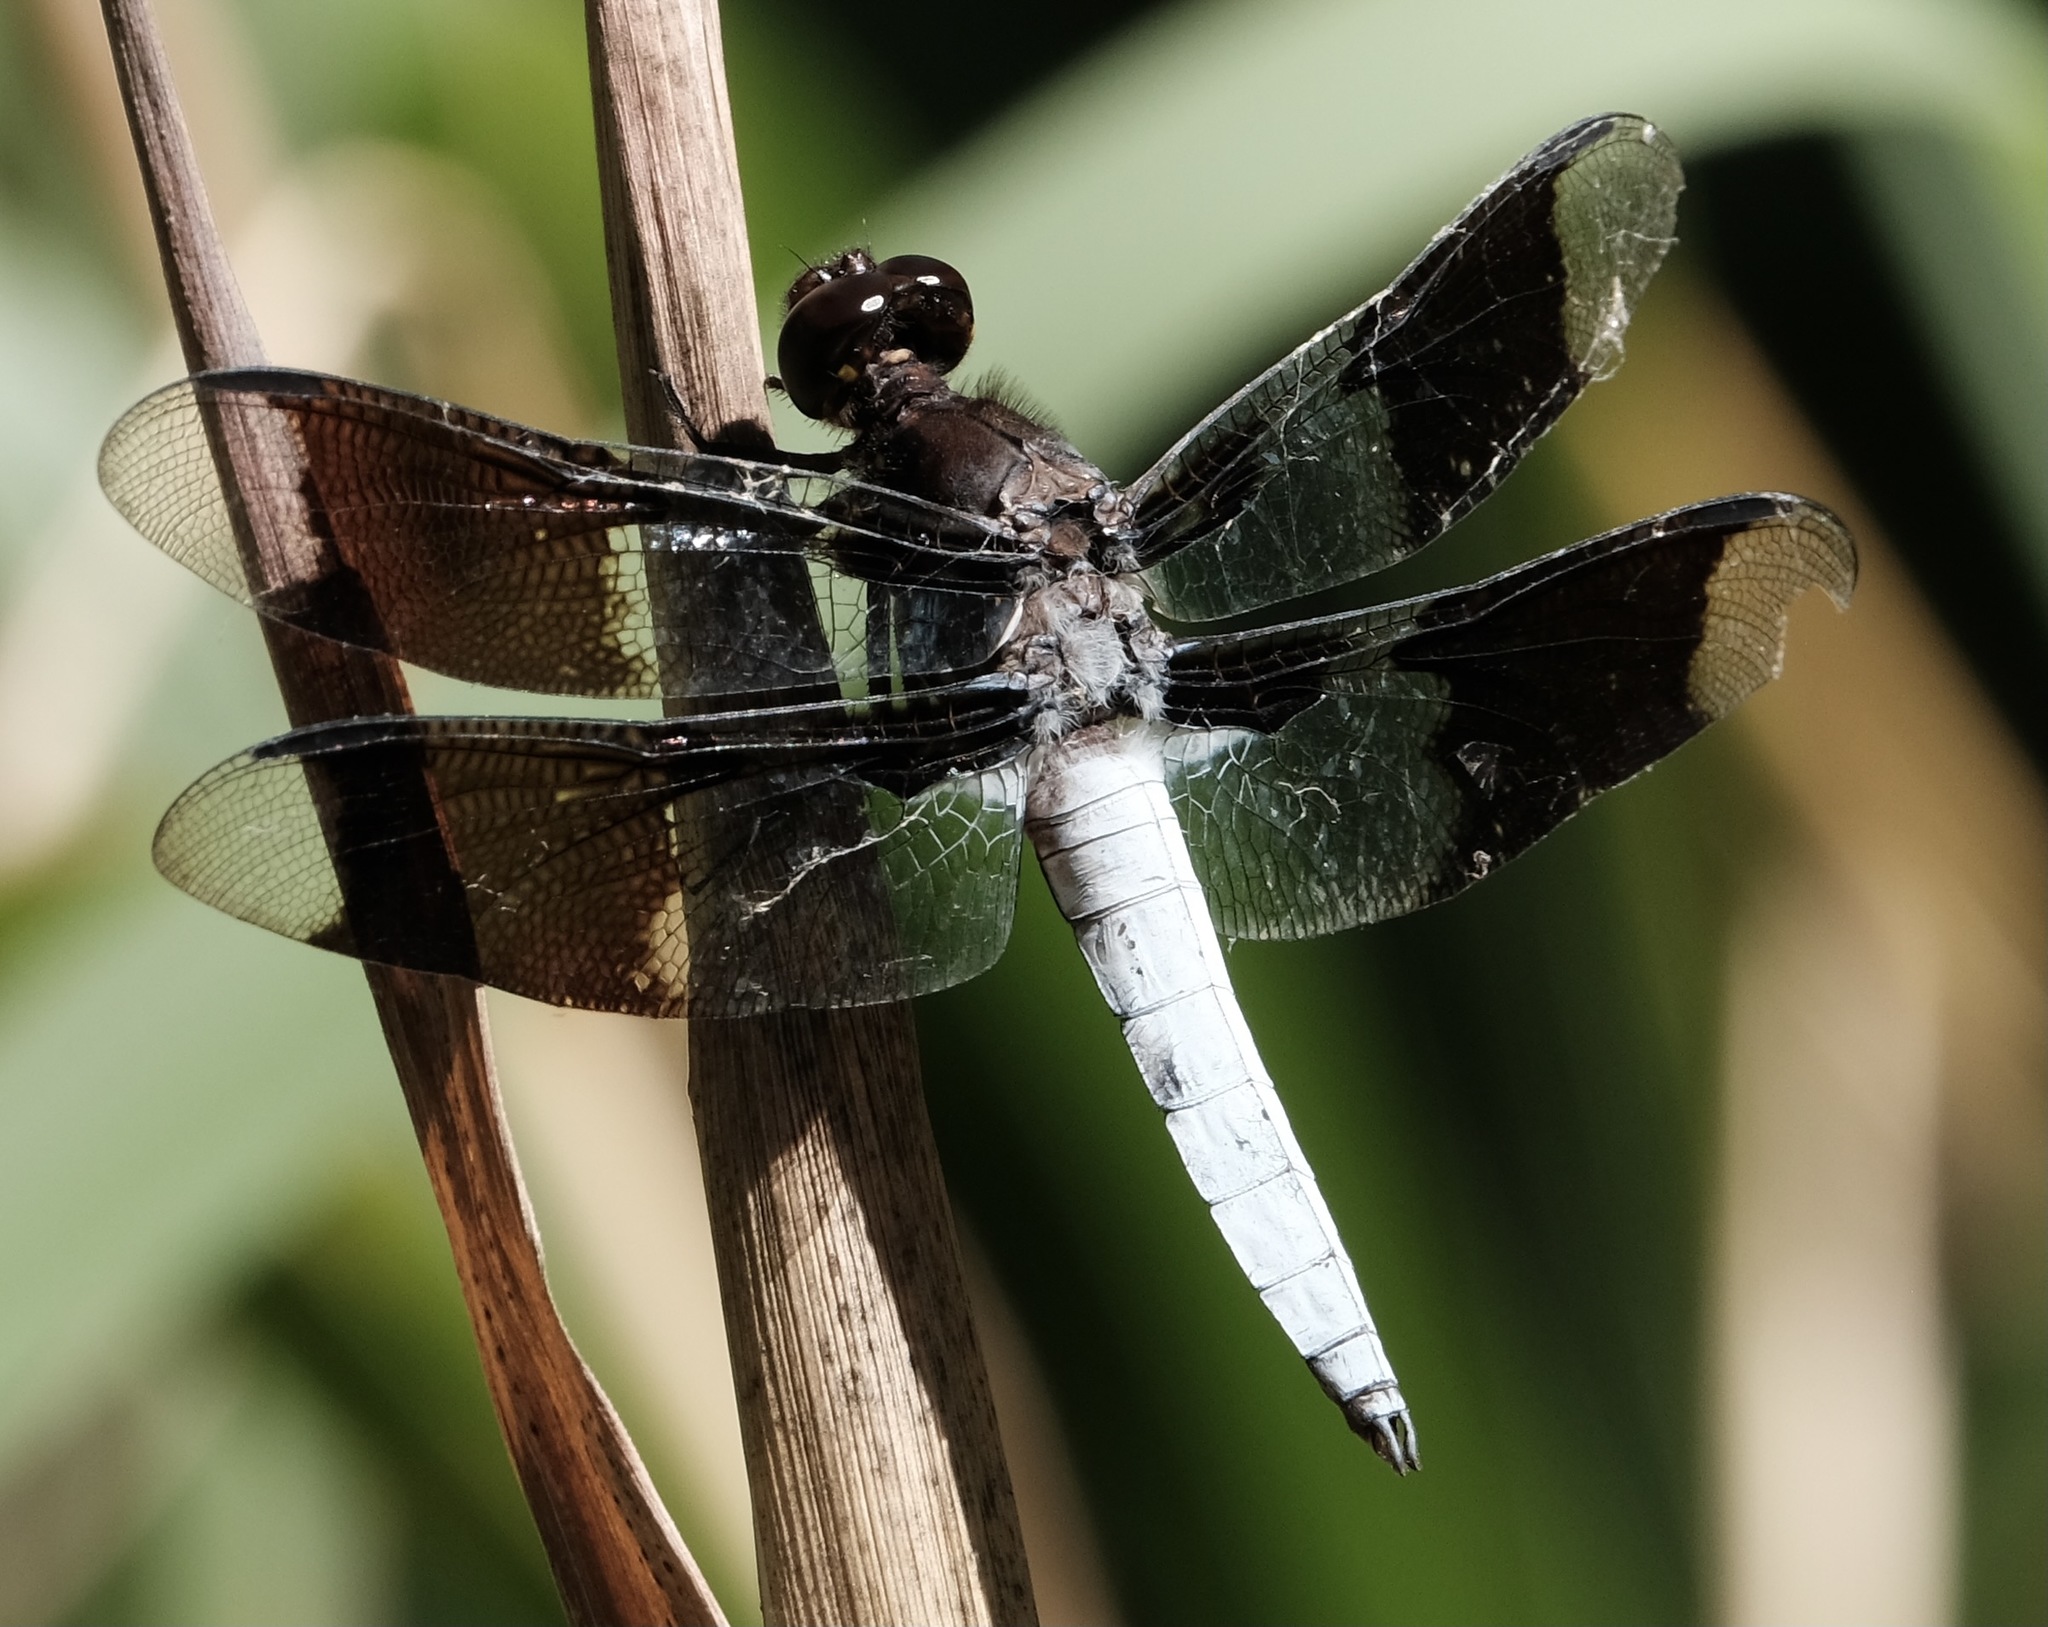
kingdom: Animalia
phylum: Arthropoda
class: Insecta
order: Odonata
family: Libellulidae
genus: Plathemis
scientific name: Plathemis lydia
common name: Common whitetail
